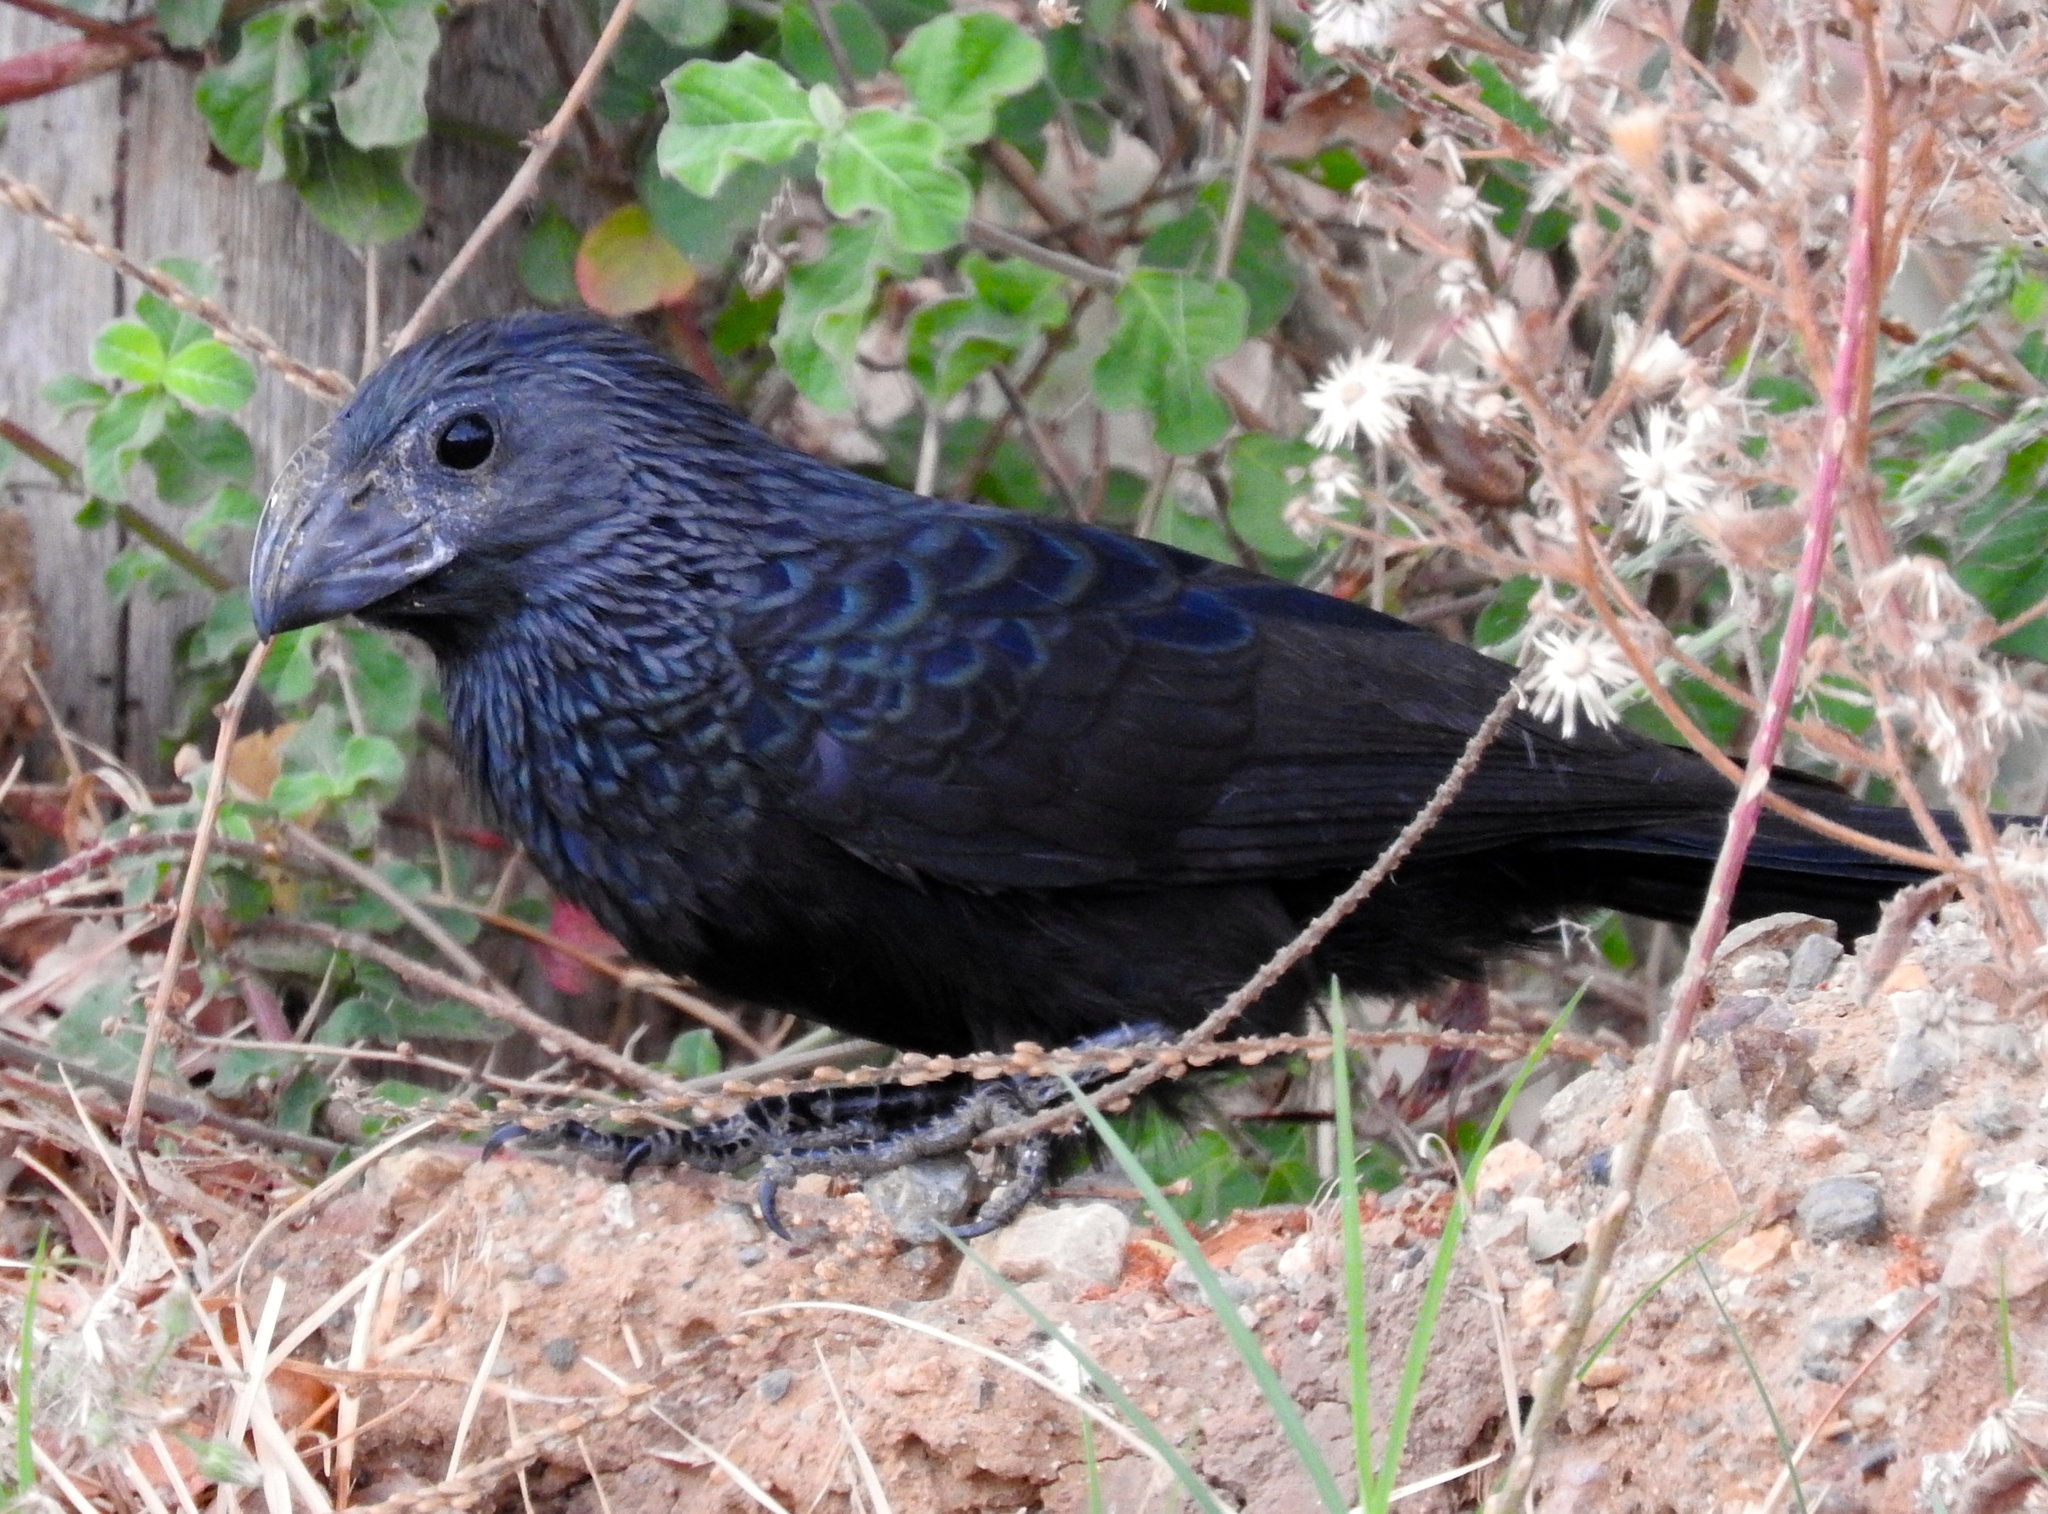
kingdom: Animalia
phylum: Chordata
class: Aves
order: Cuculiformes
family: Cuculidae
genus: Crotophaga
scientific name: Crotophaga sulcirostris
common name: Groove-billed ani
